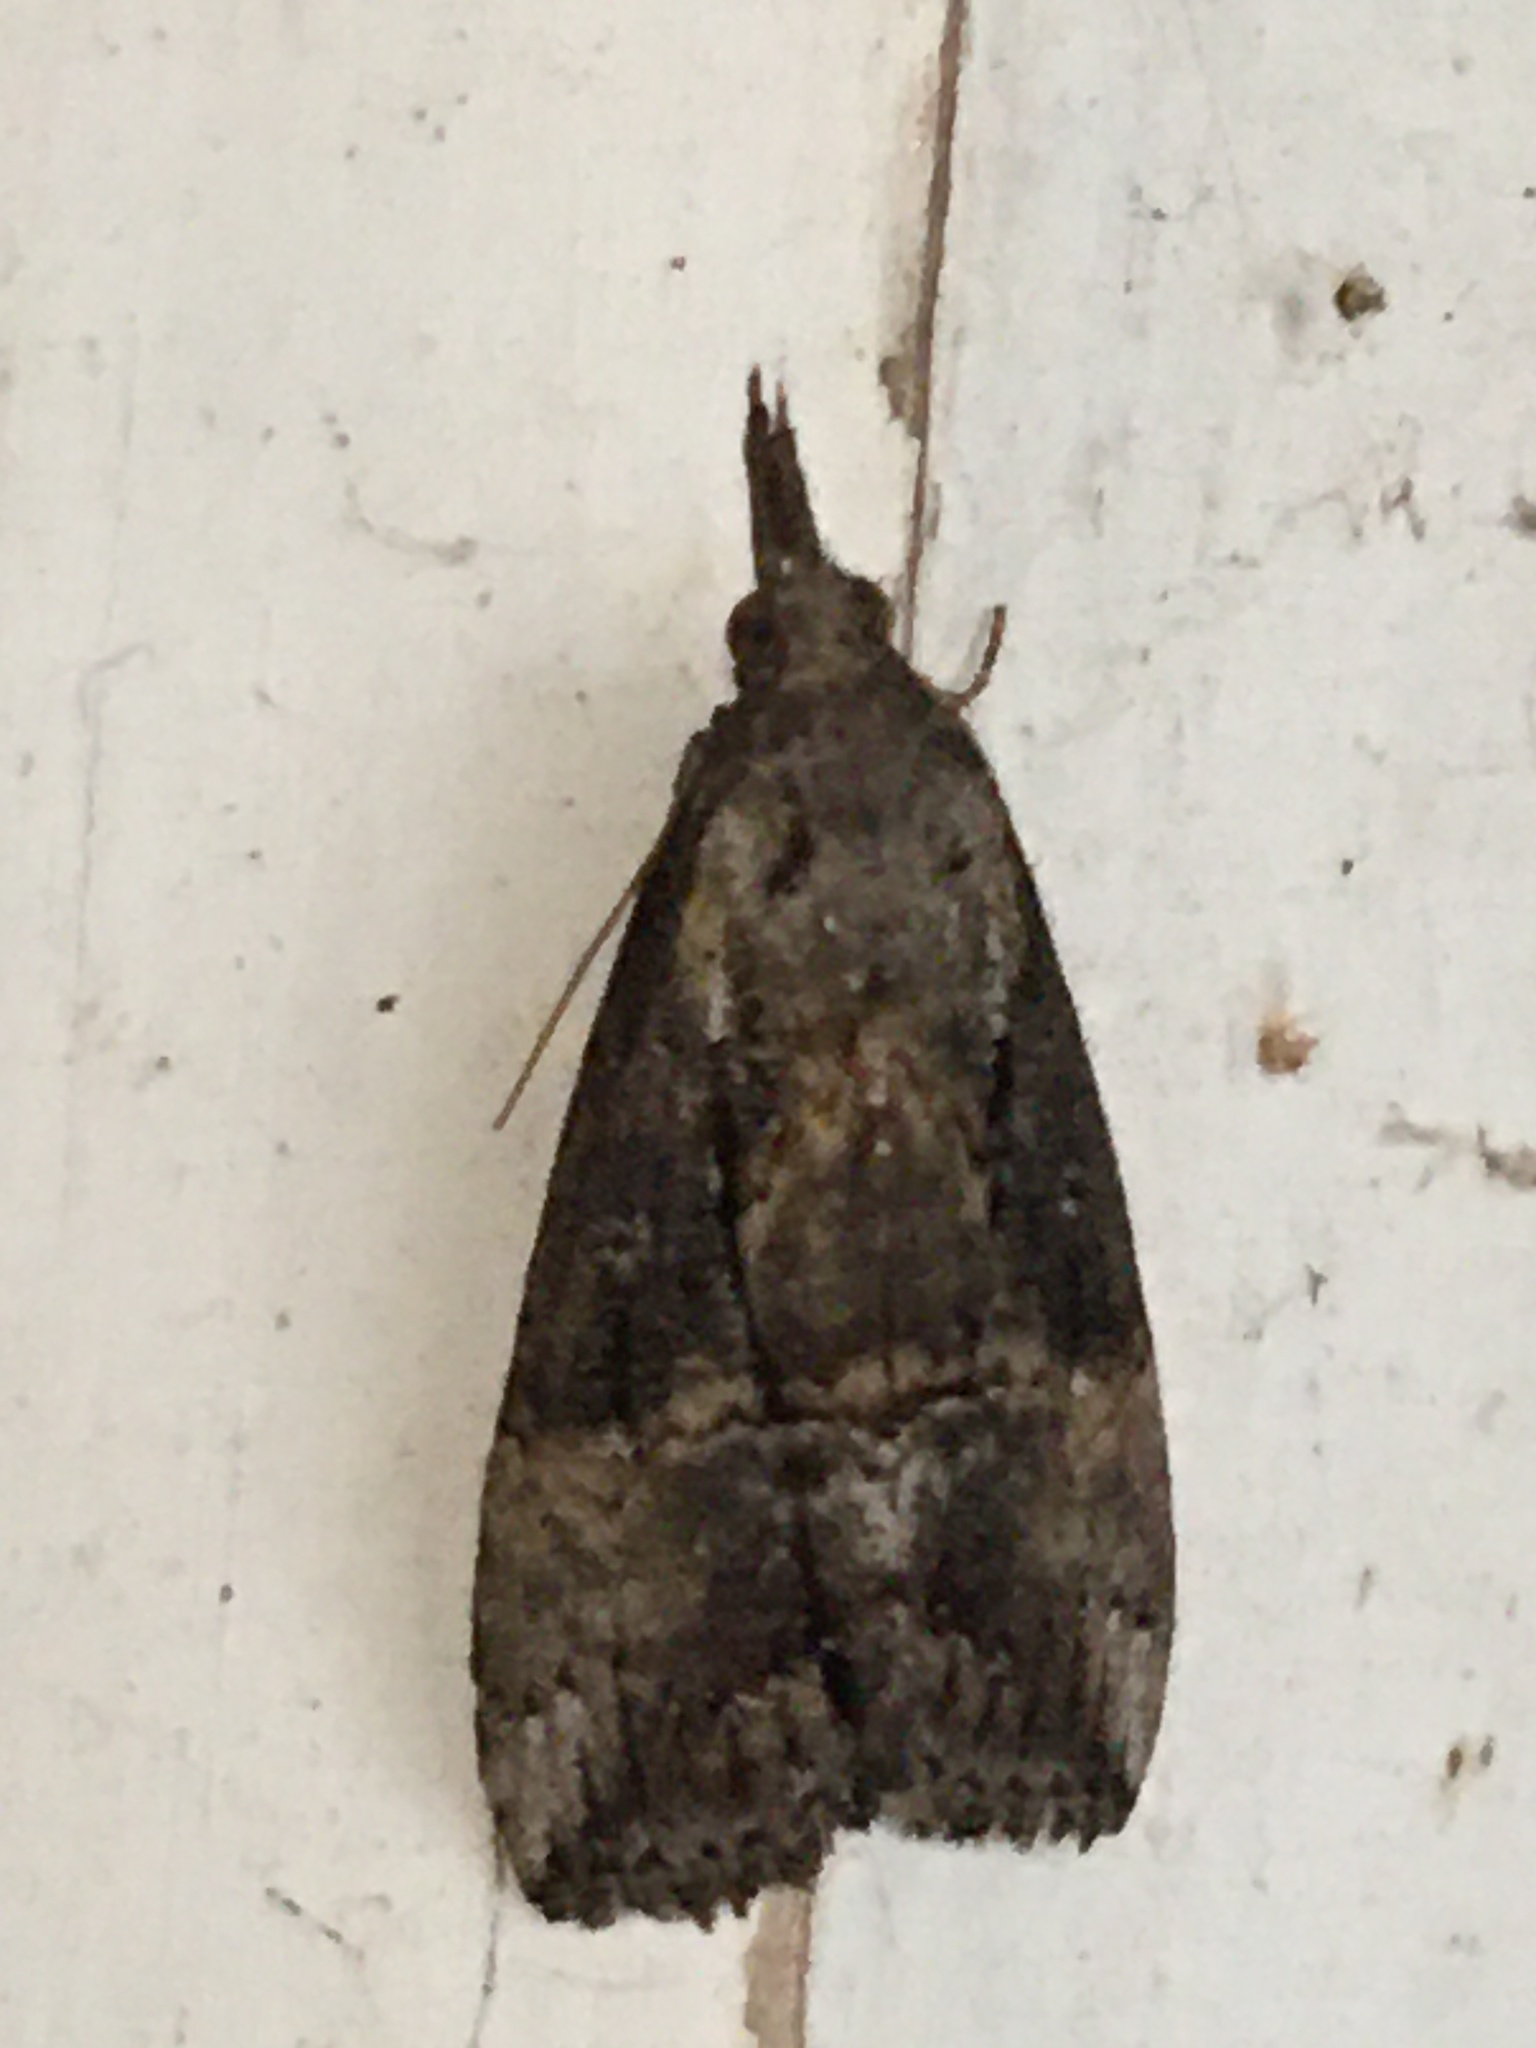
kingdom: Animalia
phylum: Arthropoda
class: Insecta
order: Lepidoptera
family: Erebidae
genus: Hypena
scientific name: Hypena scabra
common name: Green cloverworm
